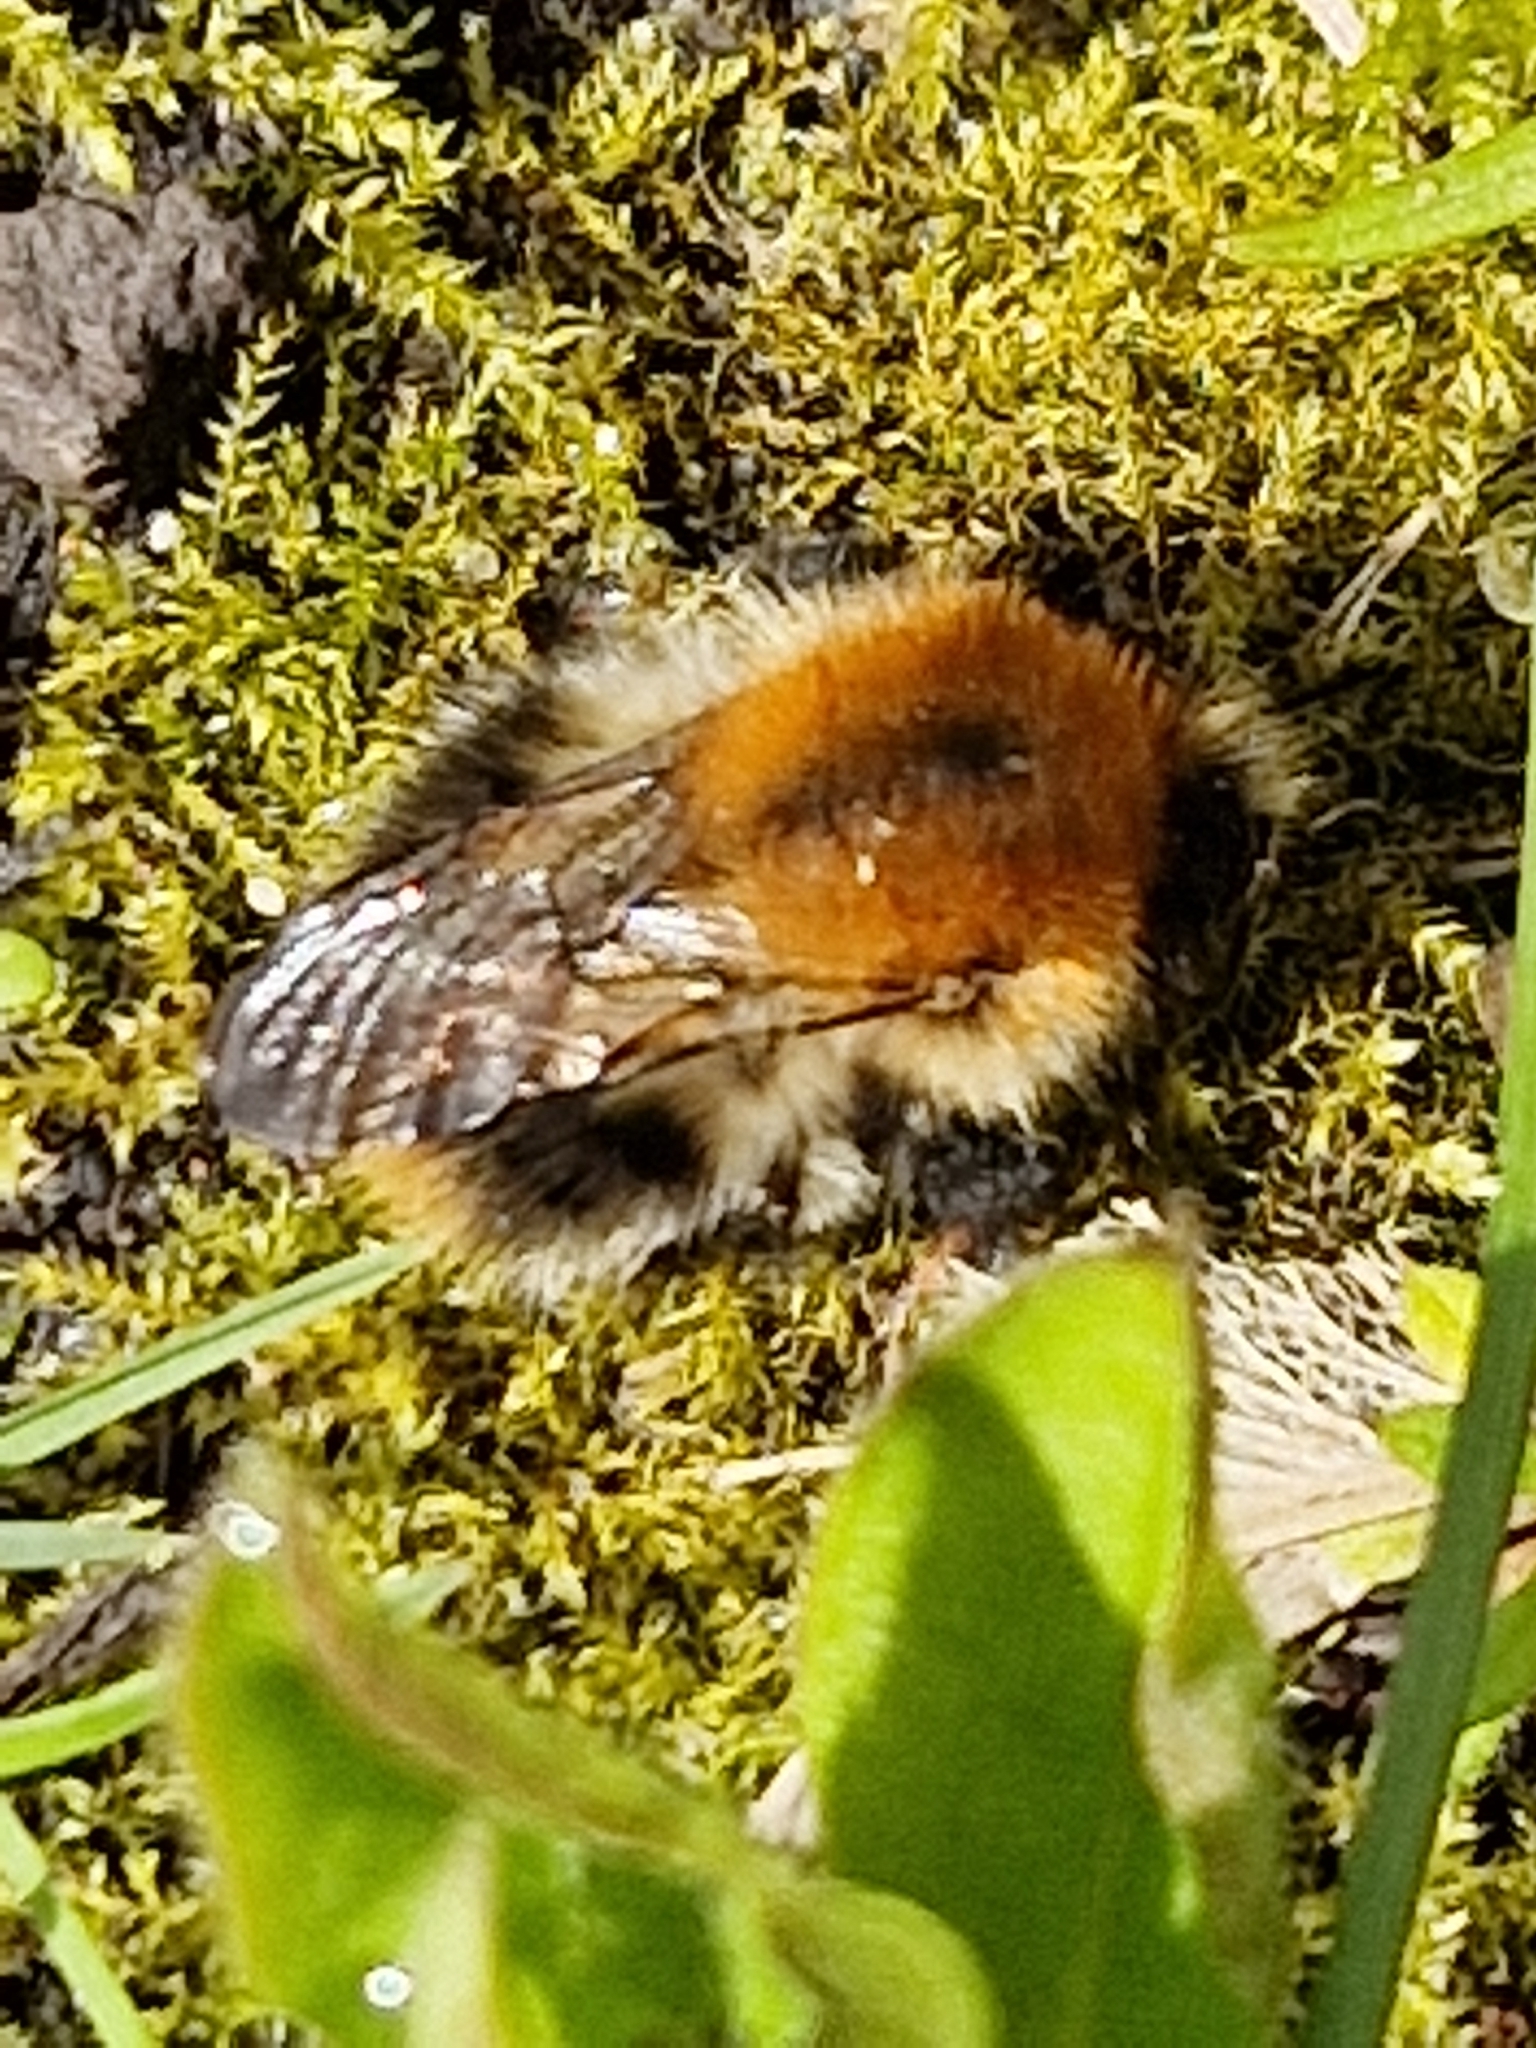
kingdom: Animalia
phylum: Arthropoda
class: Insecta
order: Hymenoptera
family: Apidae
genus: Bombus
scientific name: Bombus pascuorum
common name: Common carder bee
